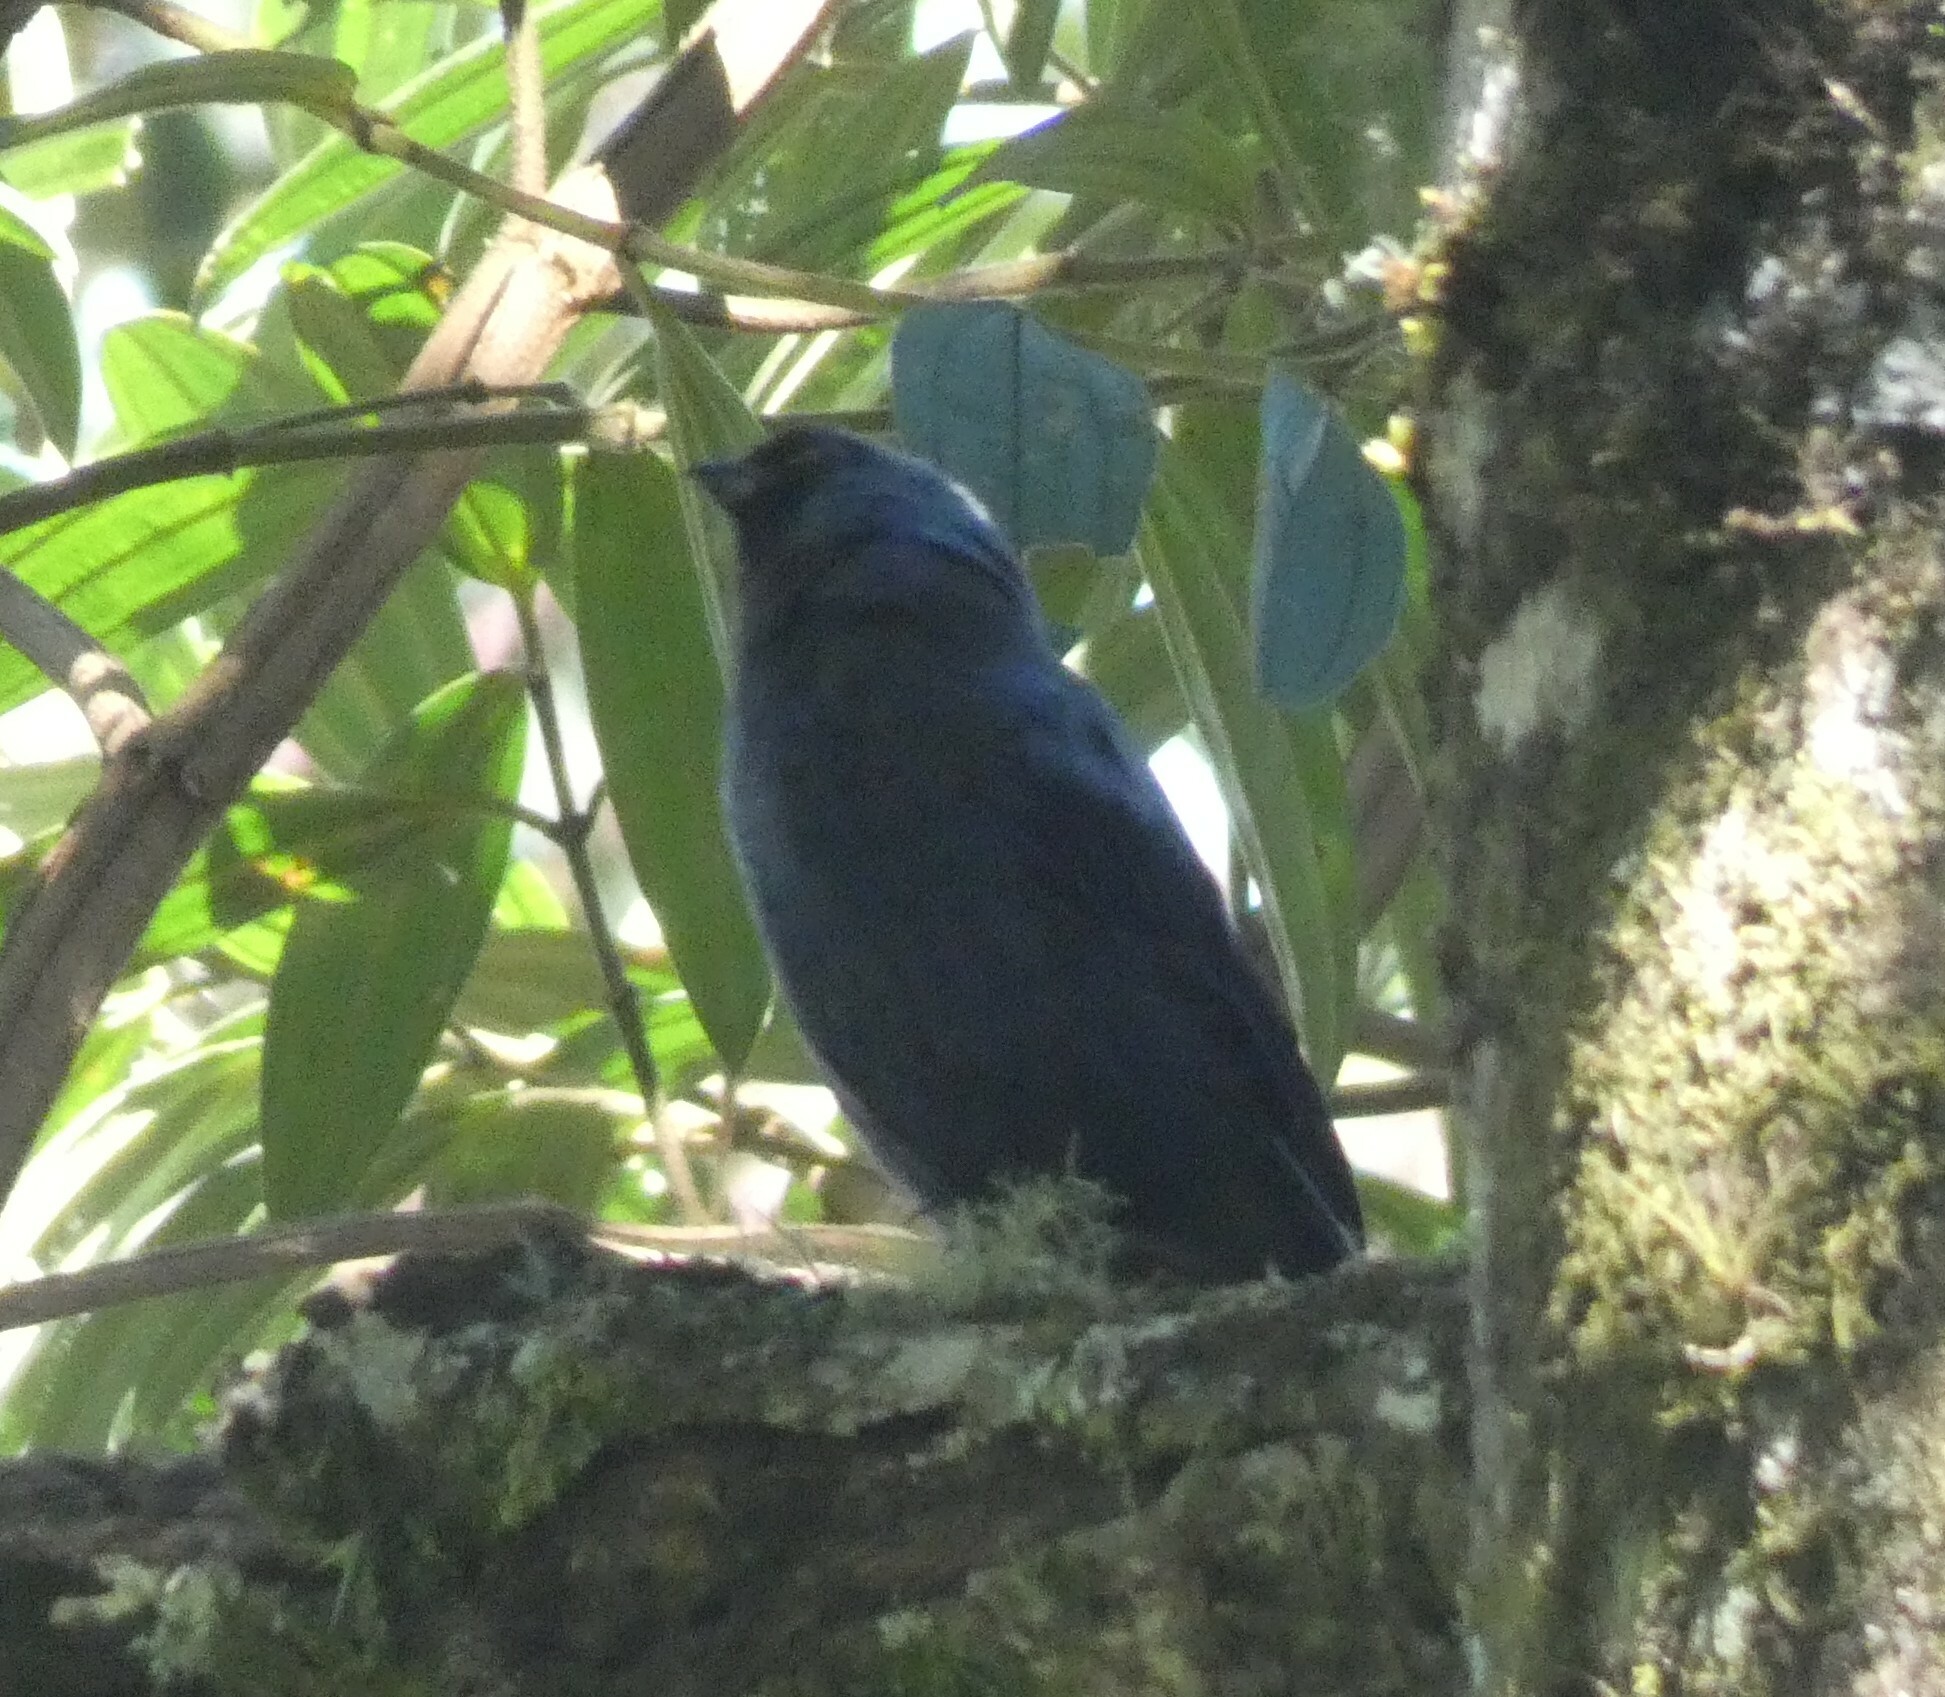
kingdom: Animalia
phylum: Chordata
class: Aves
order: Passeriformes
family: Thraupidae
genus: Stephanophorus
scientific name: Stephanophorus diadematus
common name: Diademed tanager
